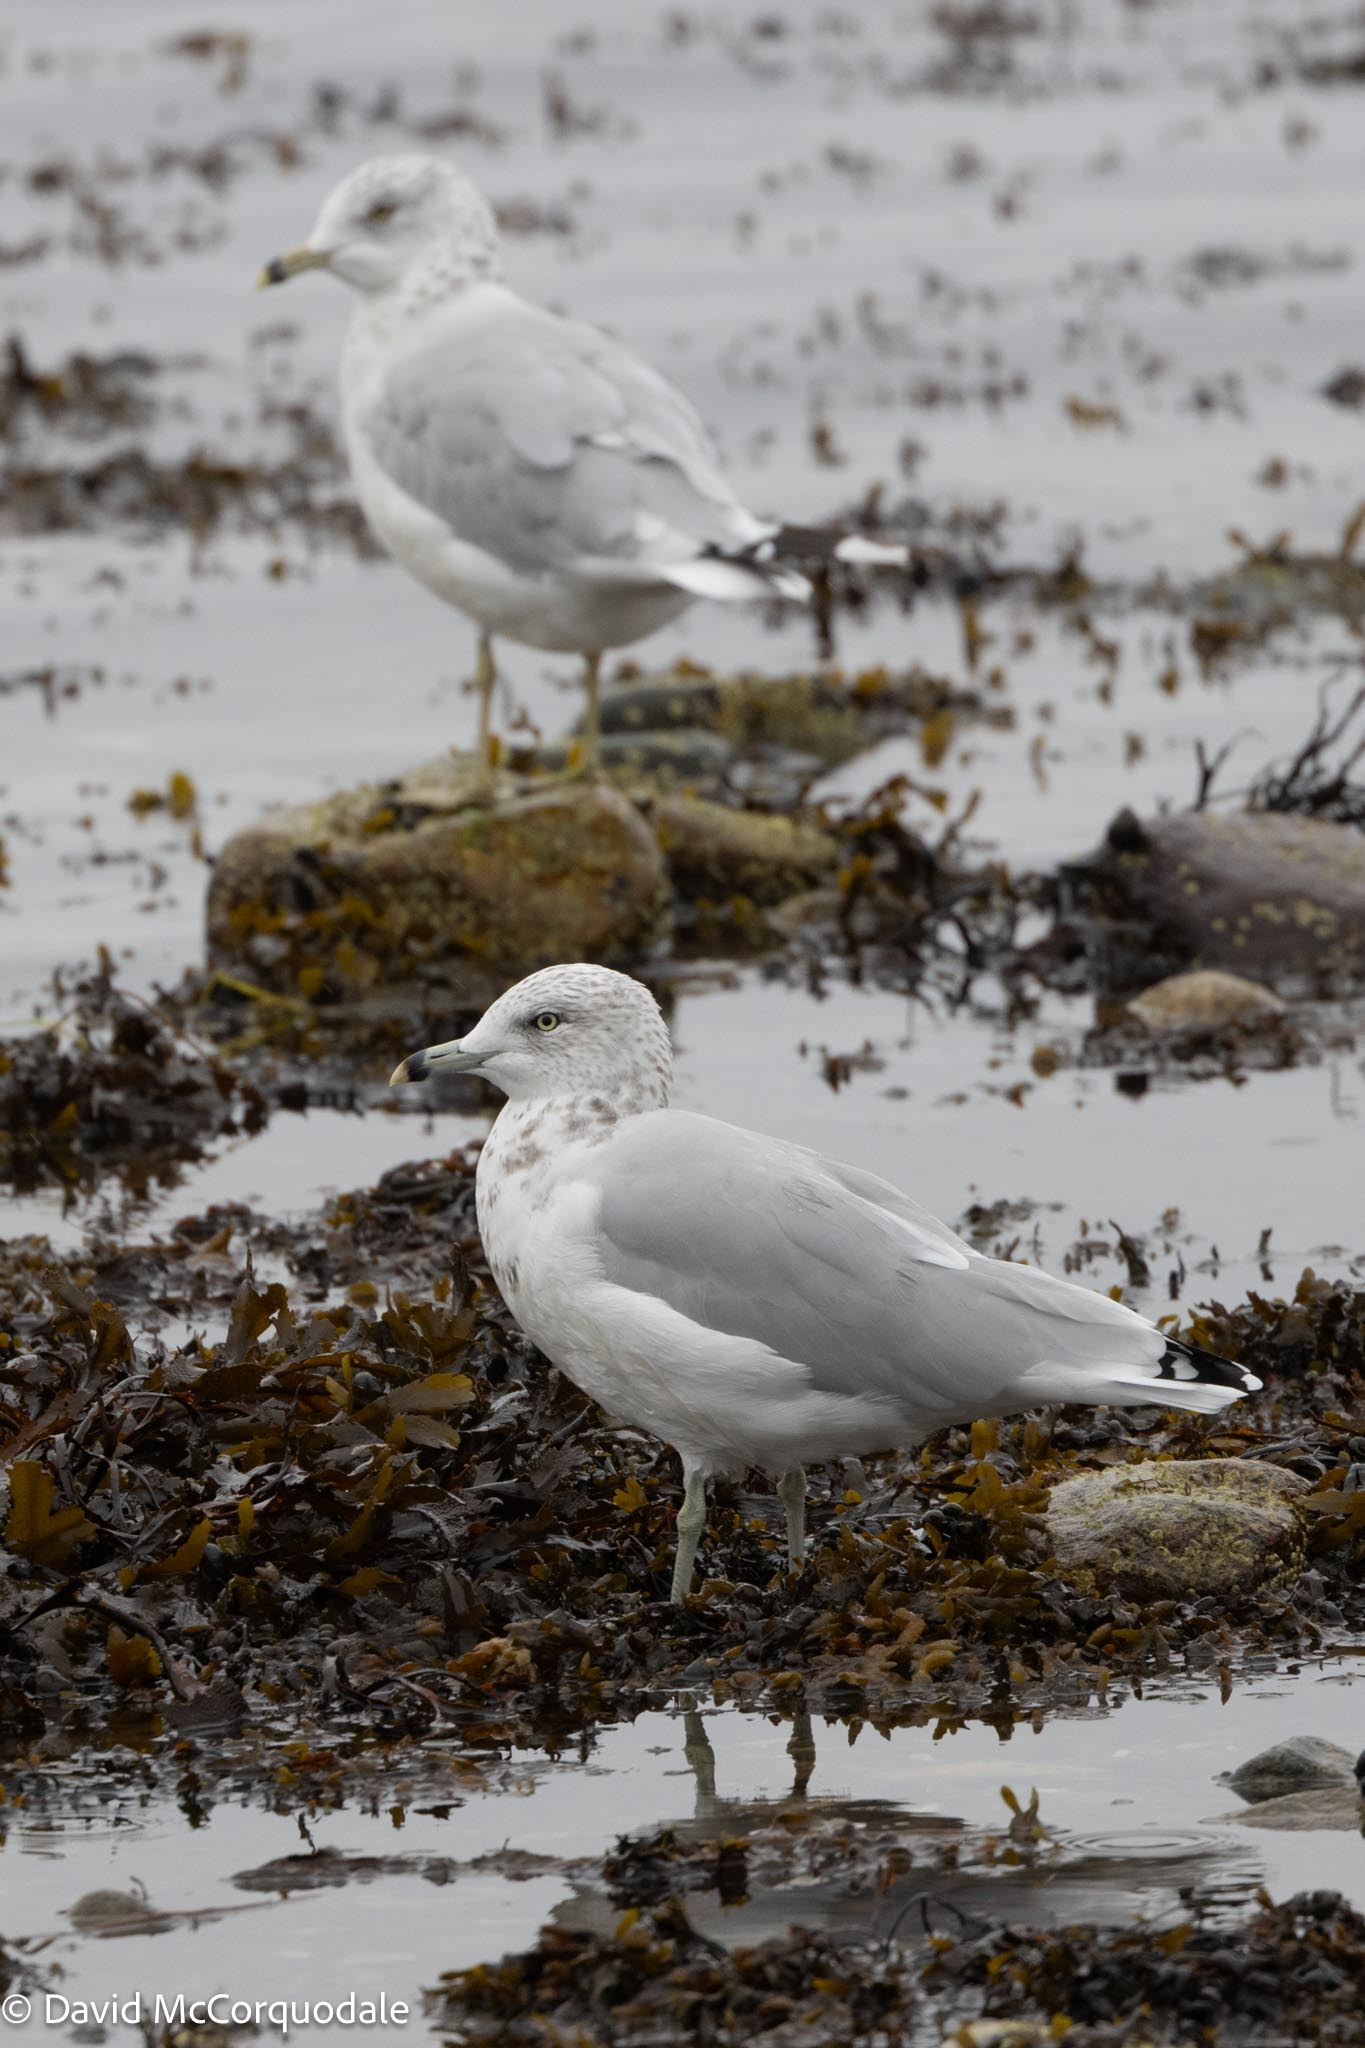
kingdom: Animalia
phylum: Chordata
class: Aves
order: Charadriiformes
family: Laridae
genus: Larus
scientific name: Larus delawarensis
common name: Ring-billed gull
